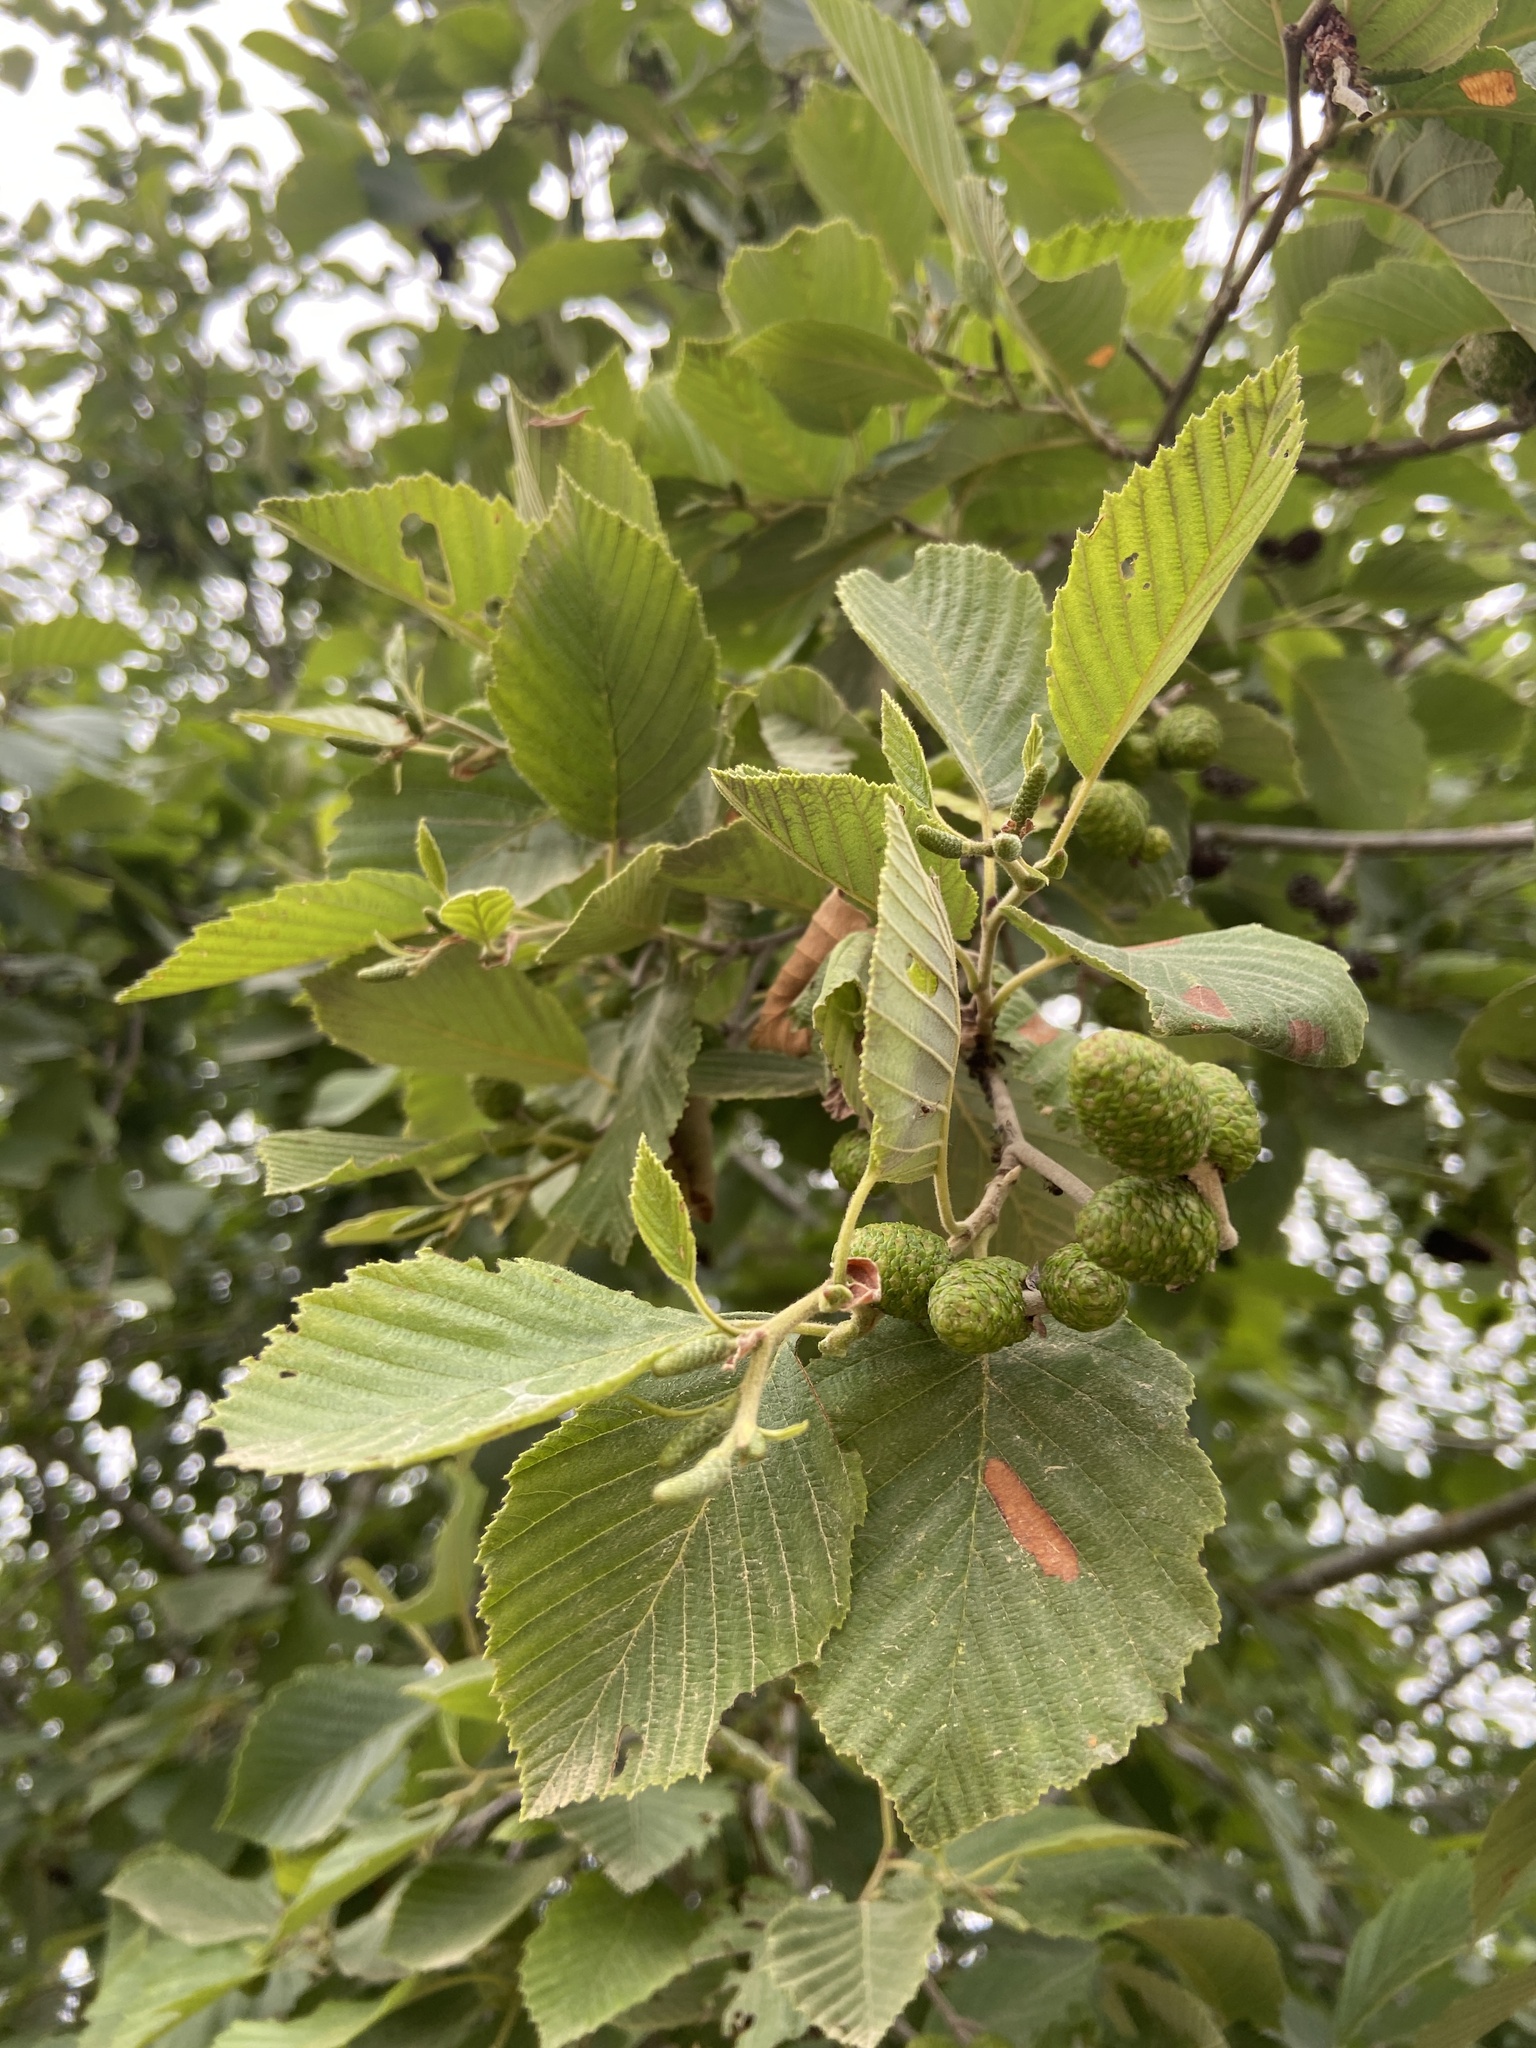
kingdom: Plantae
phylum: Tracheophyta
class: Magnoliopsida
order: Fagales
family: Betulaceae
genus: Alnus
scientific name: Alnus incana
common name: Grey alder
